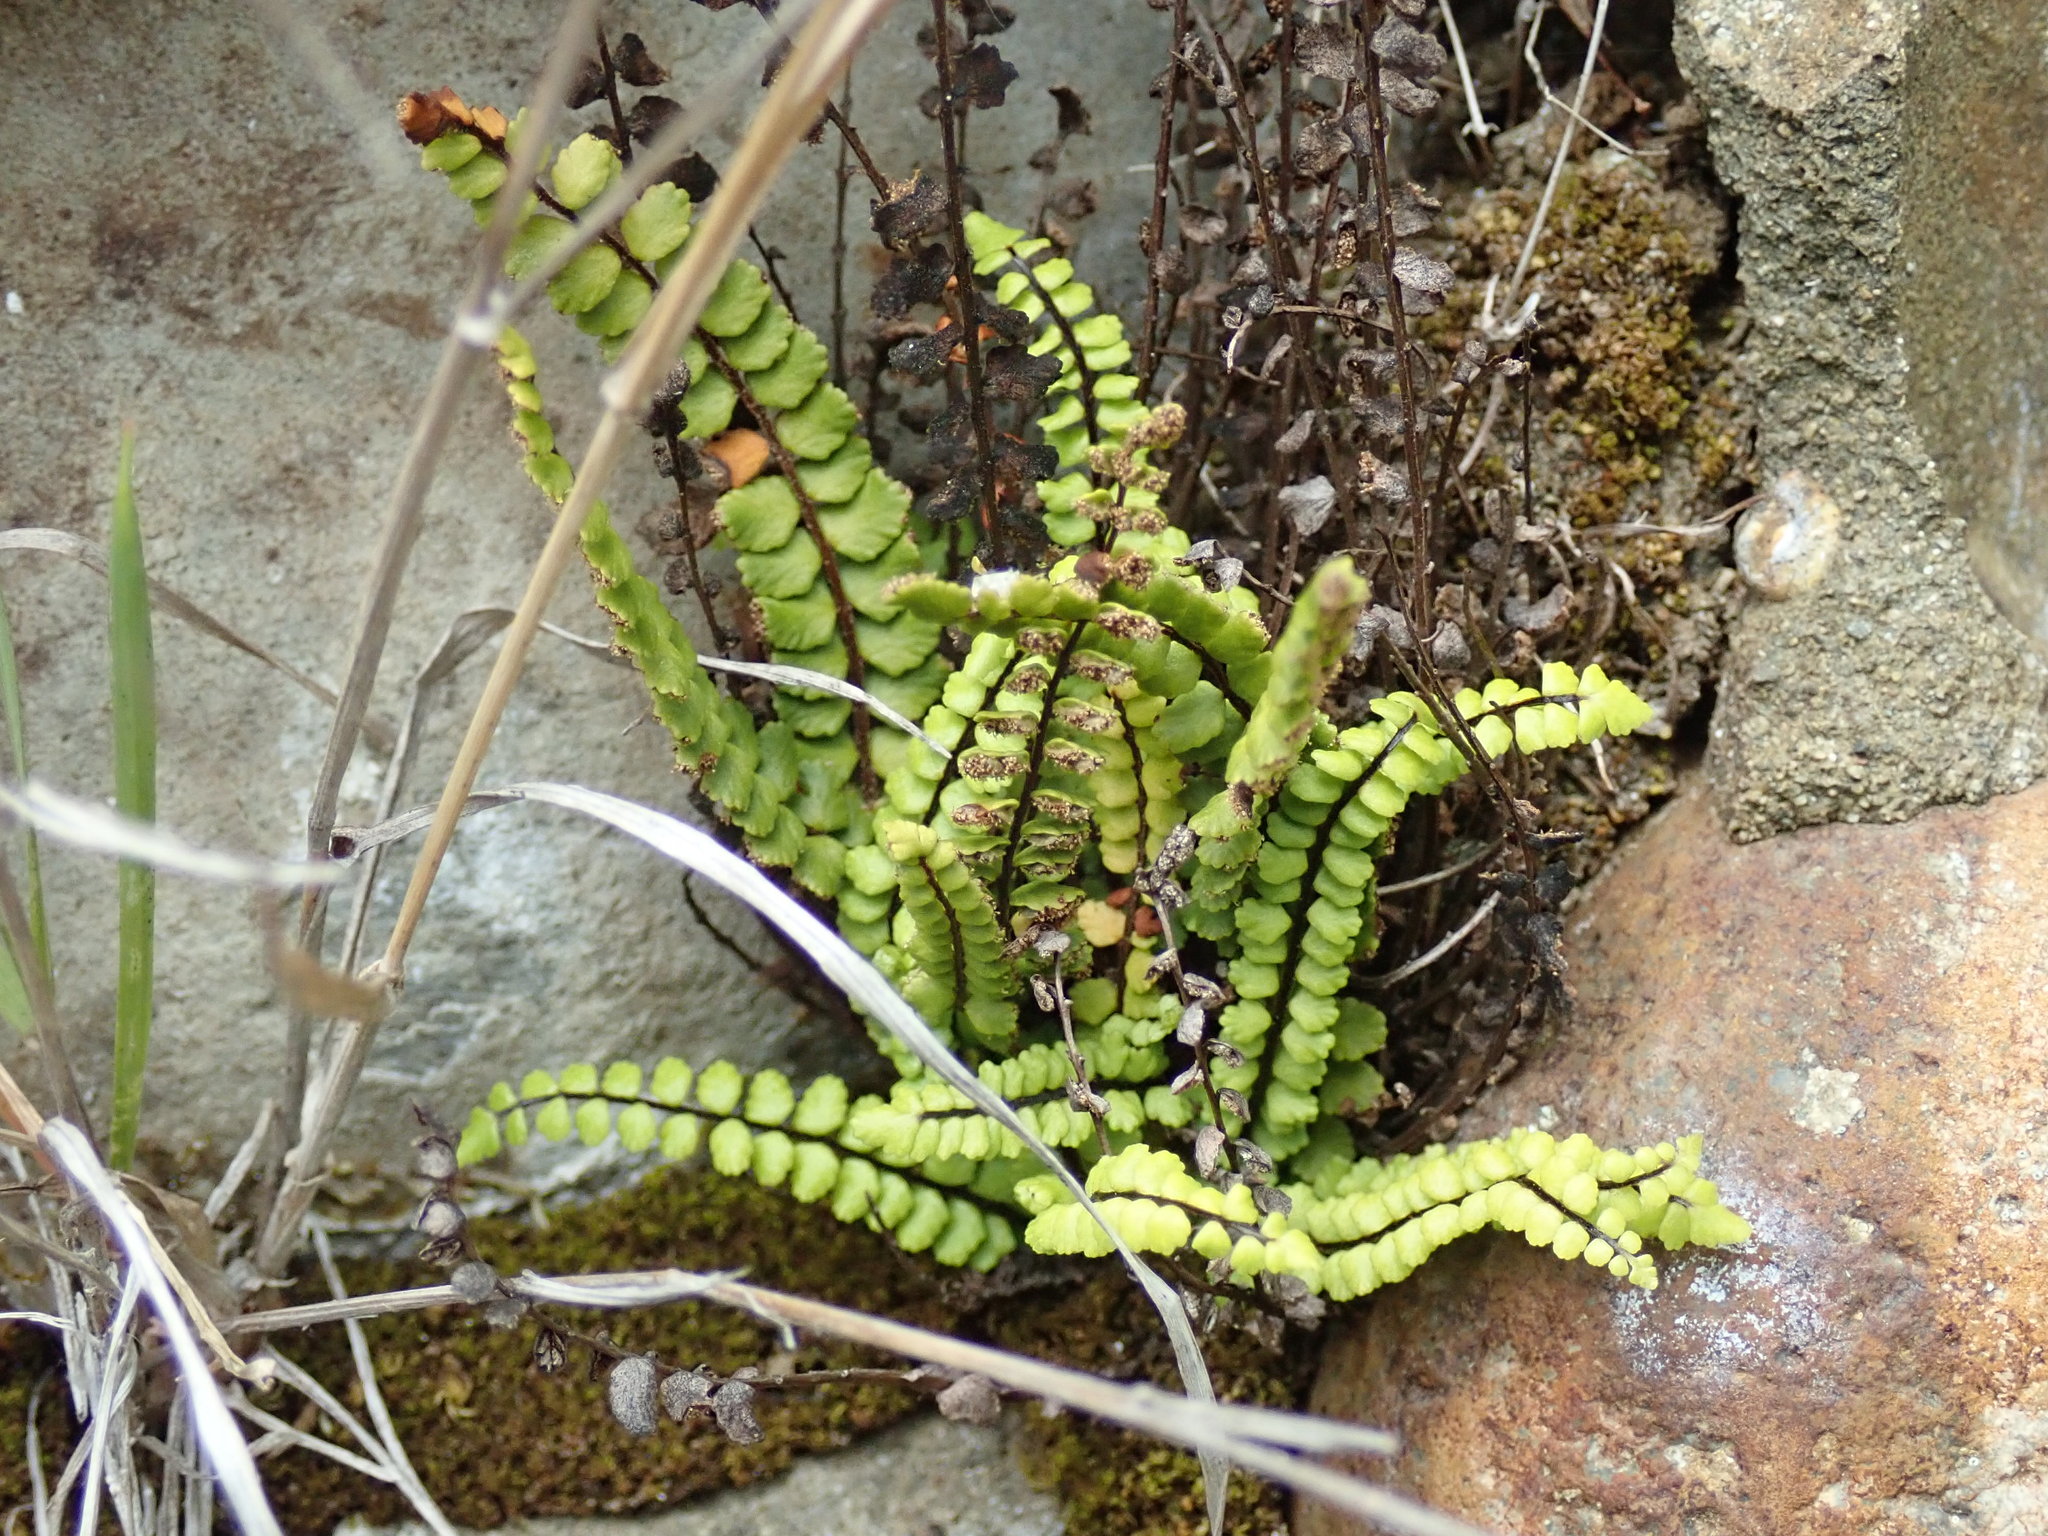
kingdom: Plantae
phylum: Tracheophyta
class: Polypodiopsida
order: Polypodiales
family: Aspleniaceae
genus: Asplenium
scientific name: Asplenium trichomanes
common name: Maidenhair spleenwort
